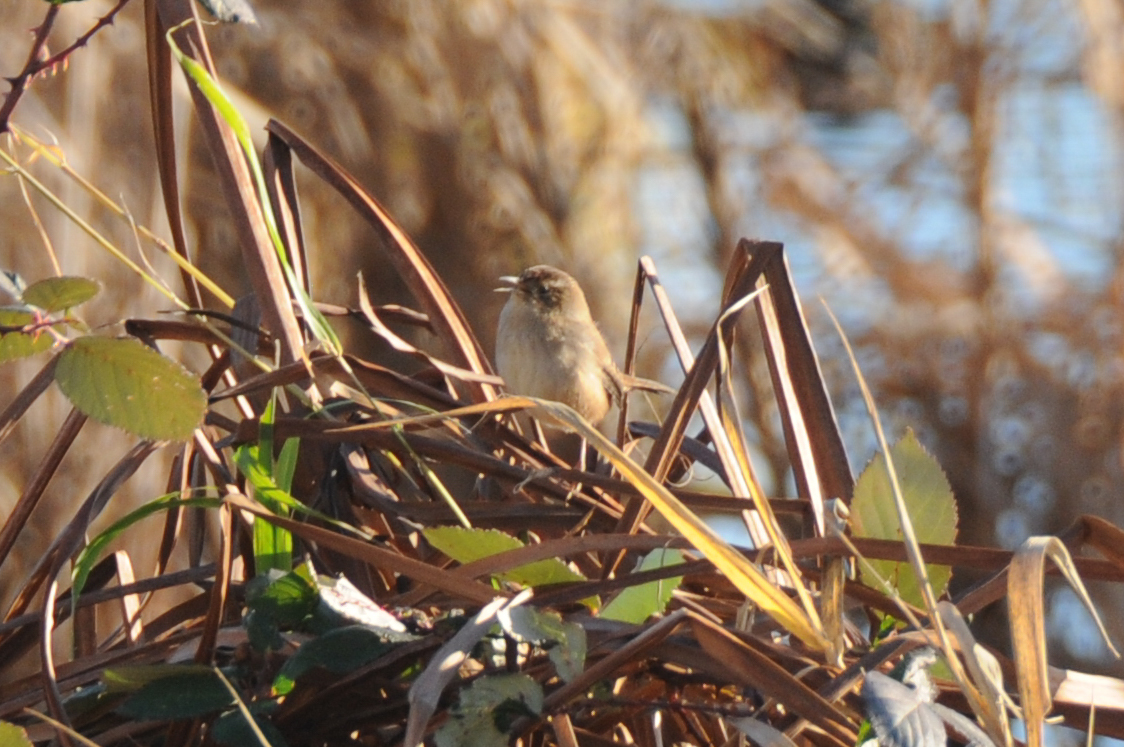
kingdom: Animalia
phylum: Chordata
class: Aves
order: Passeriformes
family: Troglodytidae
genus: Cistothorus
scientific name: Cistothorus palustris
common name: Marsh wren
